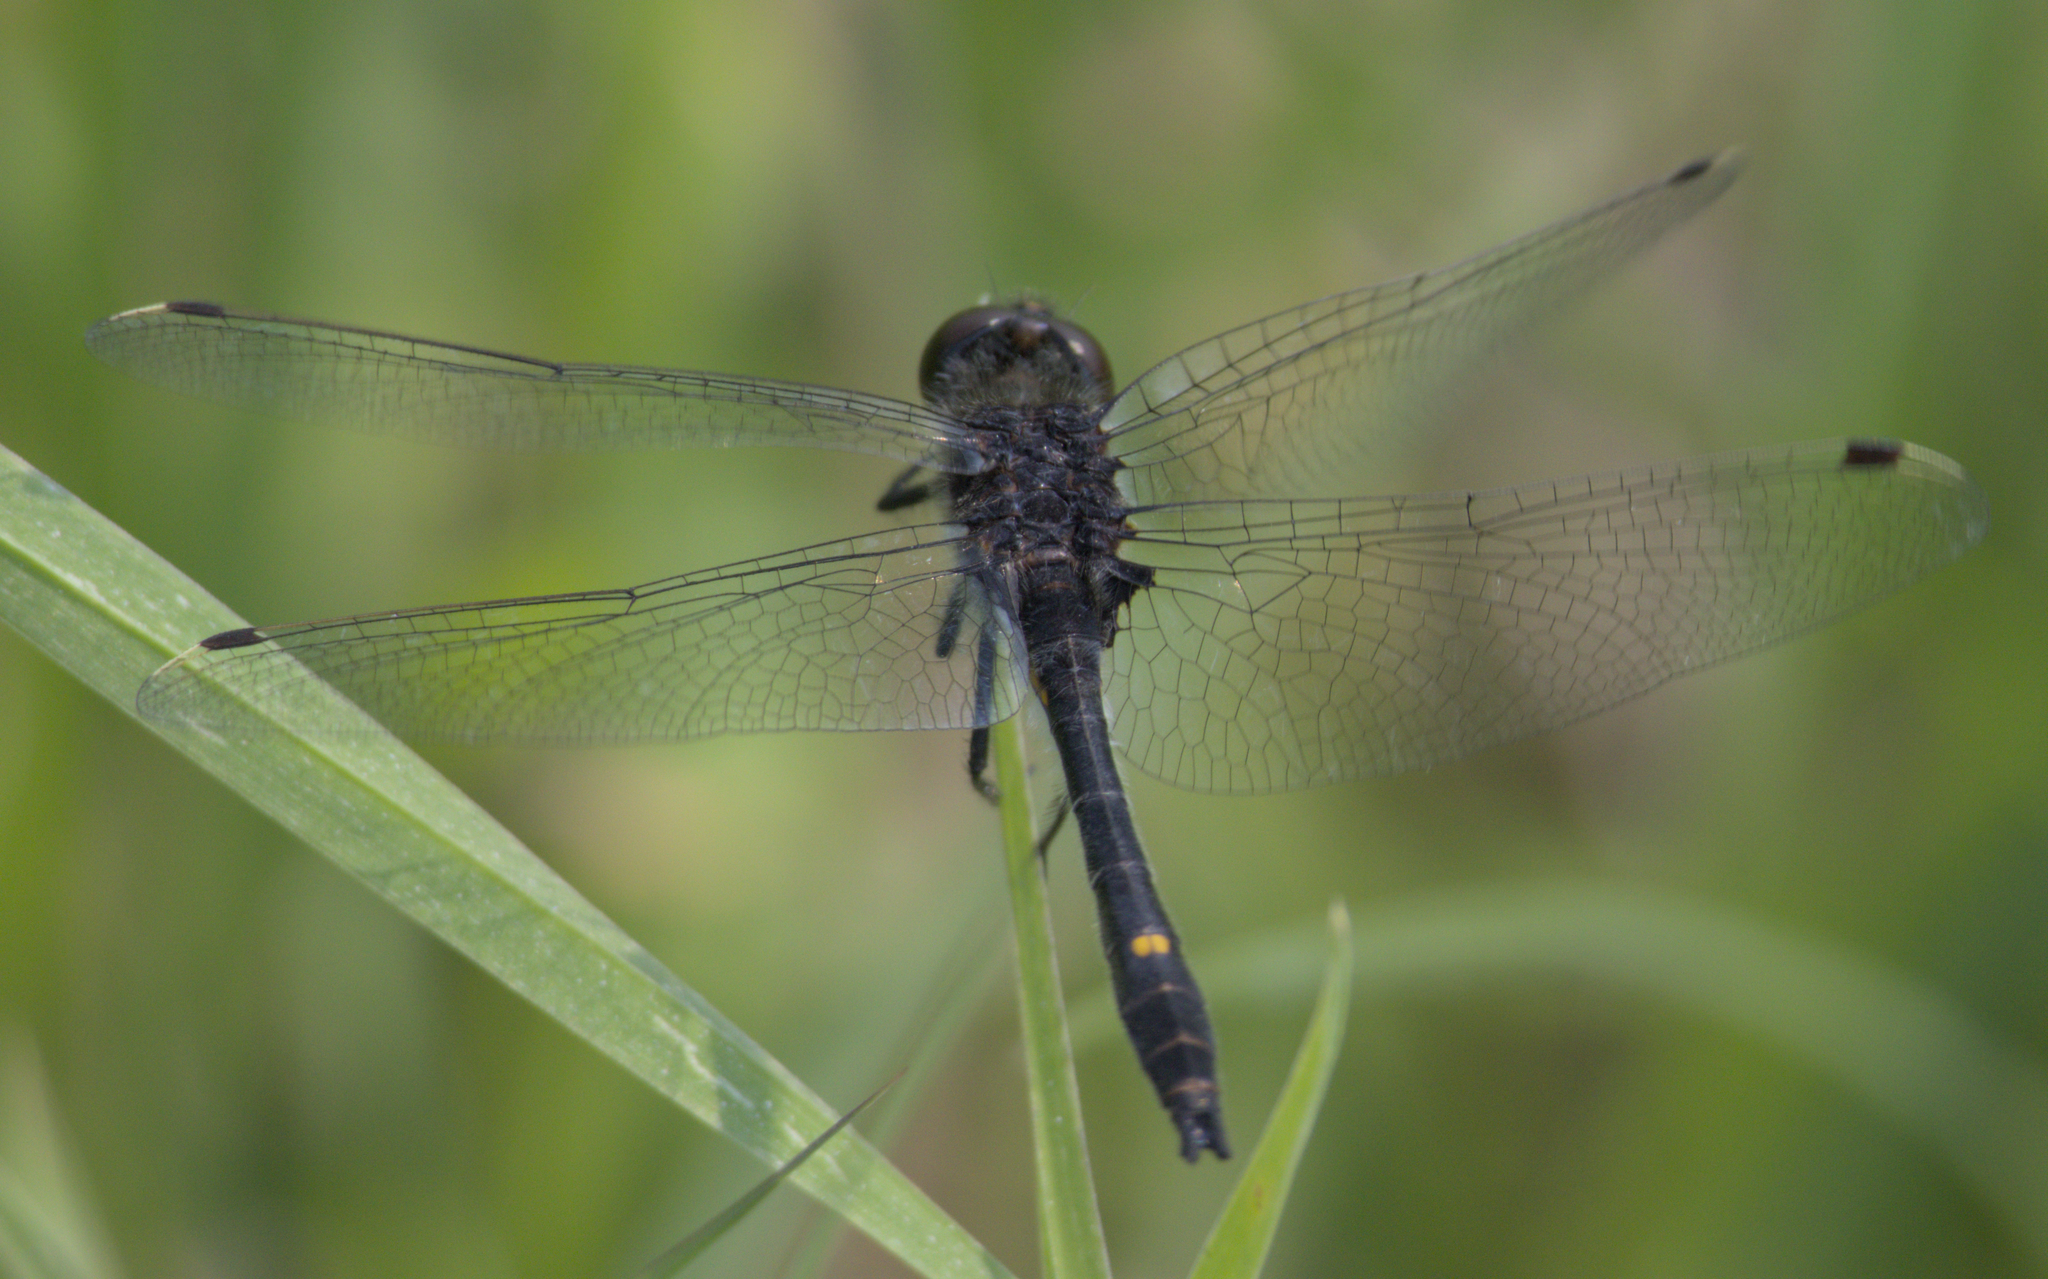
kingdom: Animalia
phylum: Arthropoda
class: Insecta
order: Odonata
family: Libellulidae
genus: Leucorrhinia
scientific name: Leucorrhinia intacta
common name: Dot-tailed whiteface
